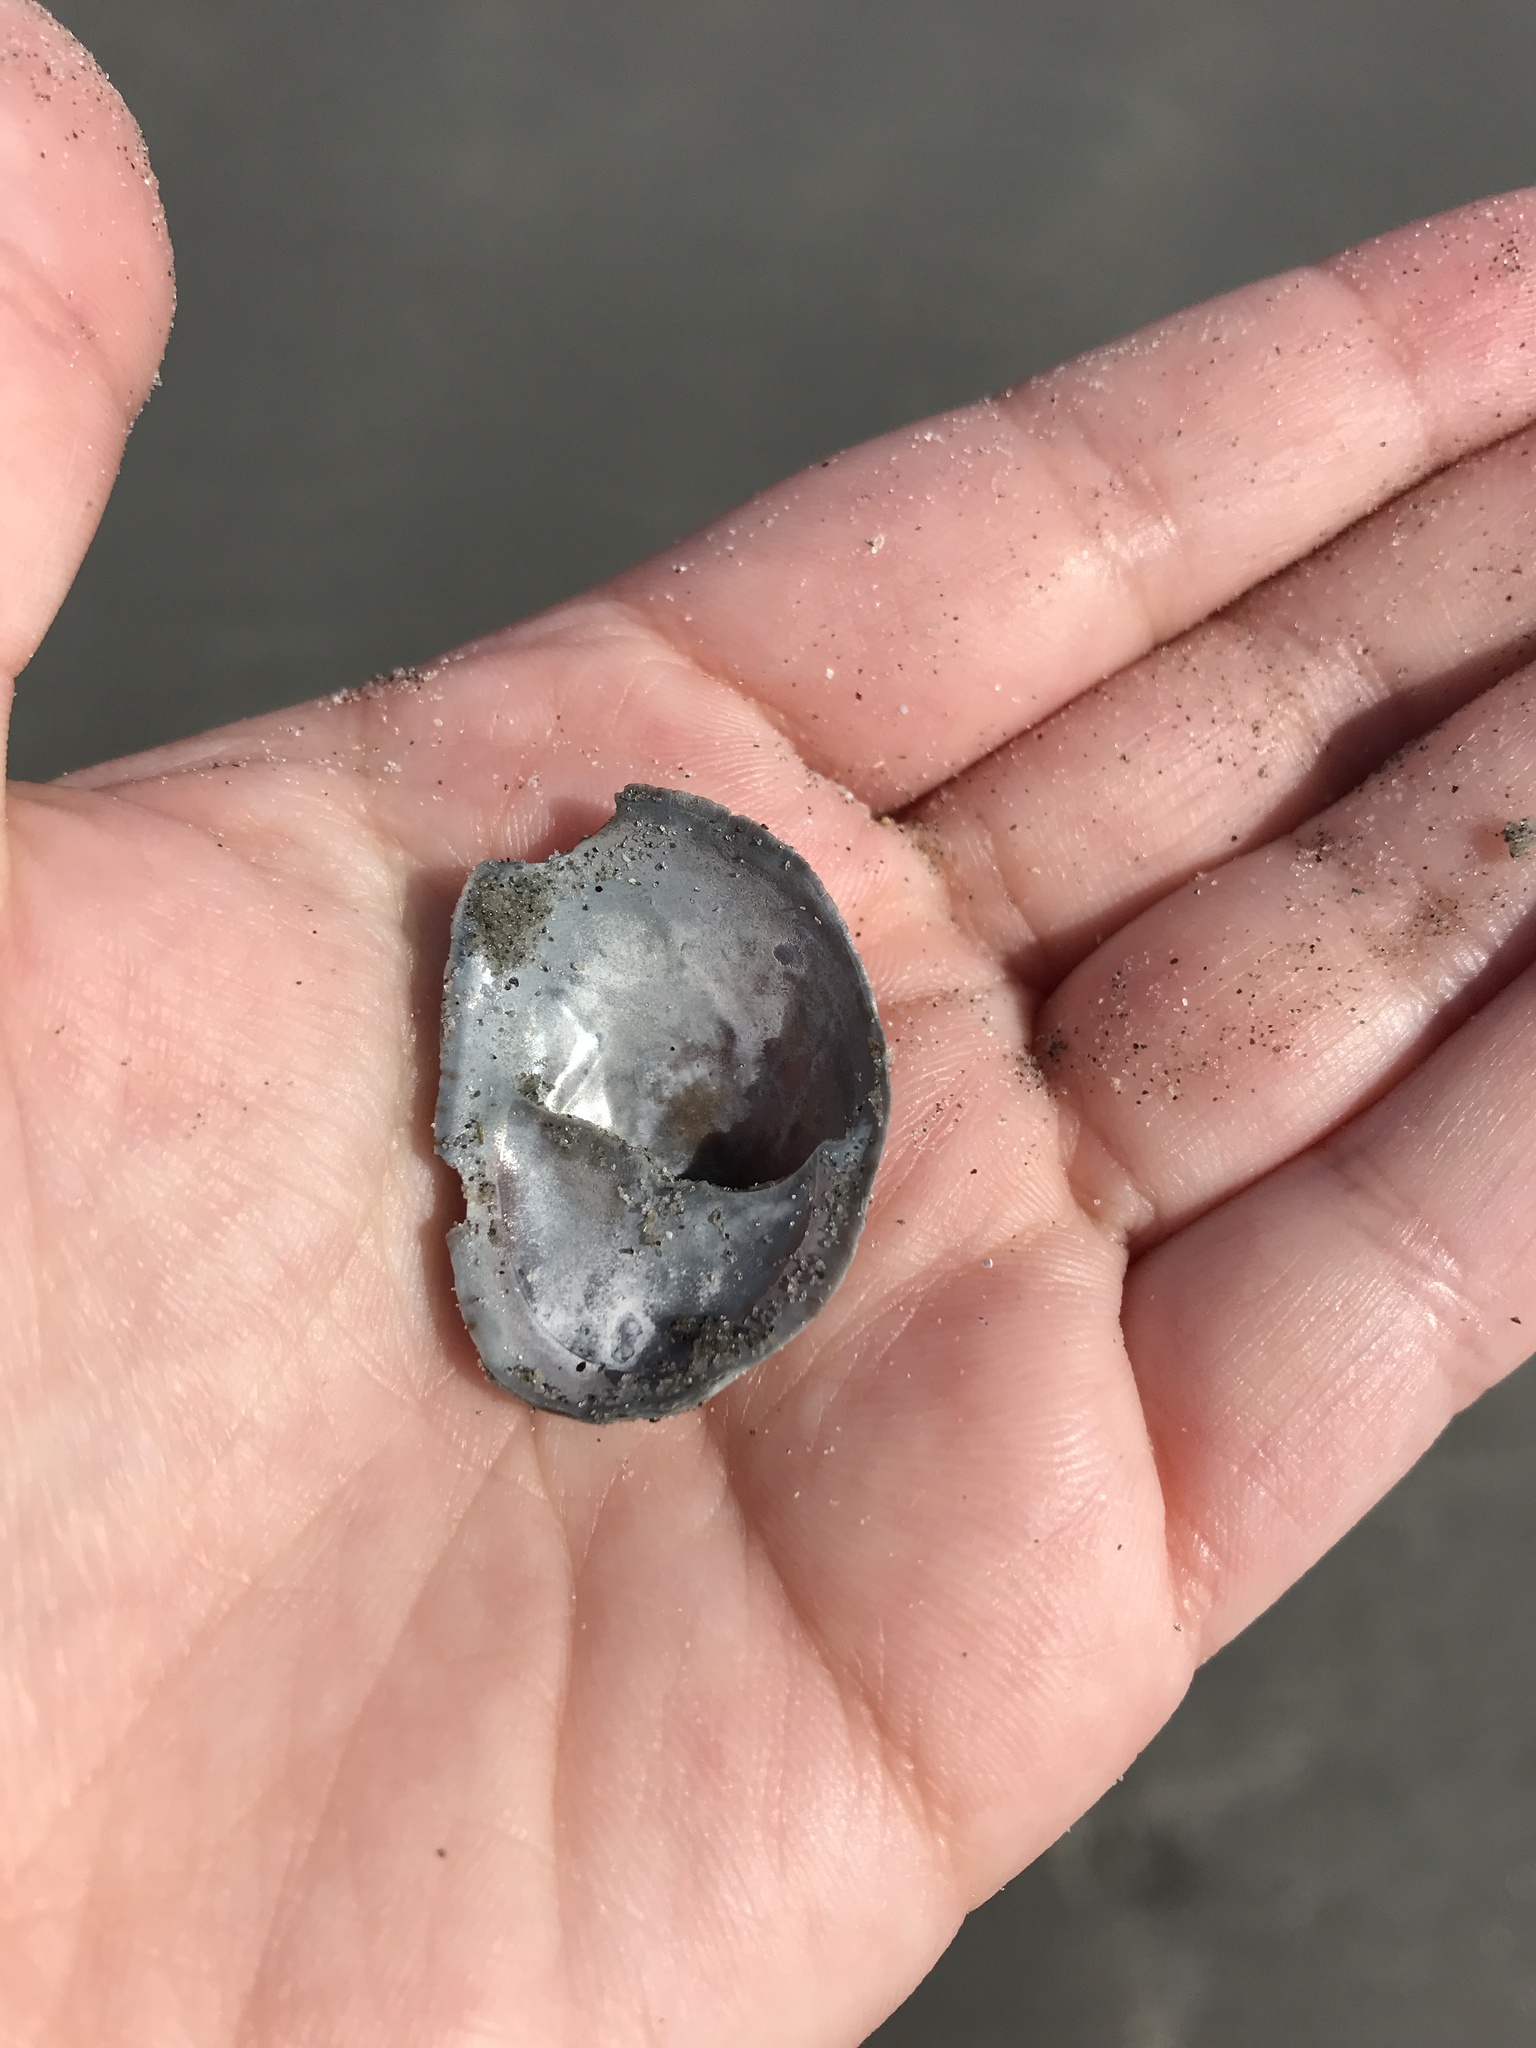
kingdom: Animalia
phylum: Mollusca
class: Gastropoda
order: Littorinimorpha
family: Calyptraeidae
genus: Crepidula
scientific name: Crepidula fornicata
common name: Slipper limpet
